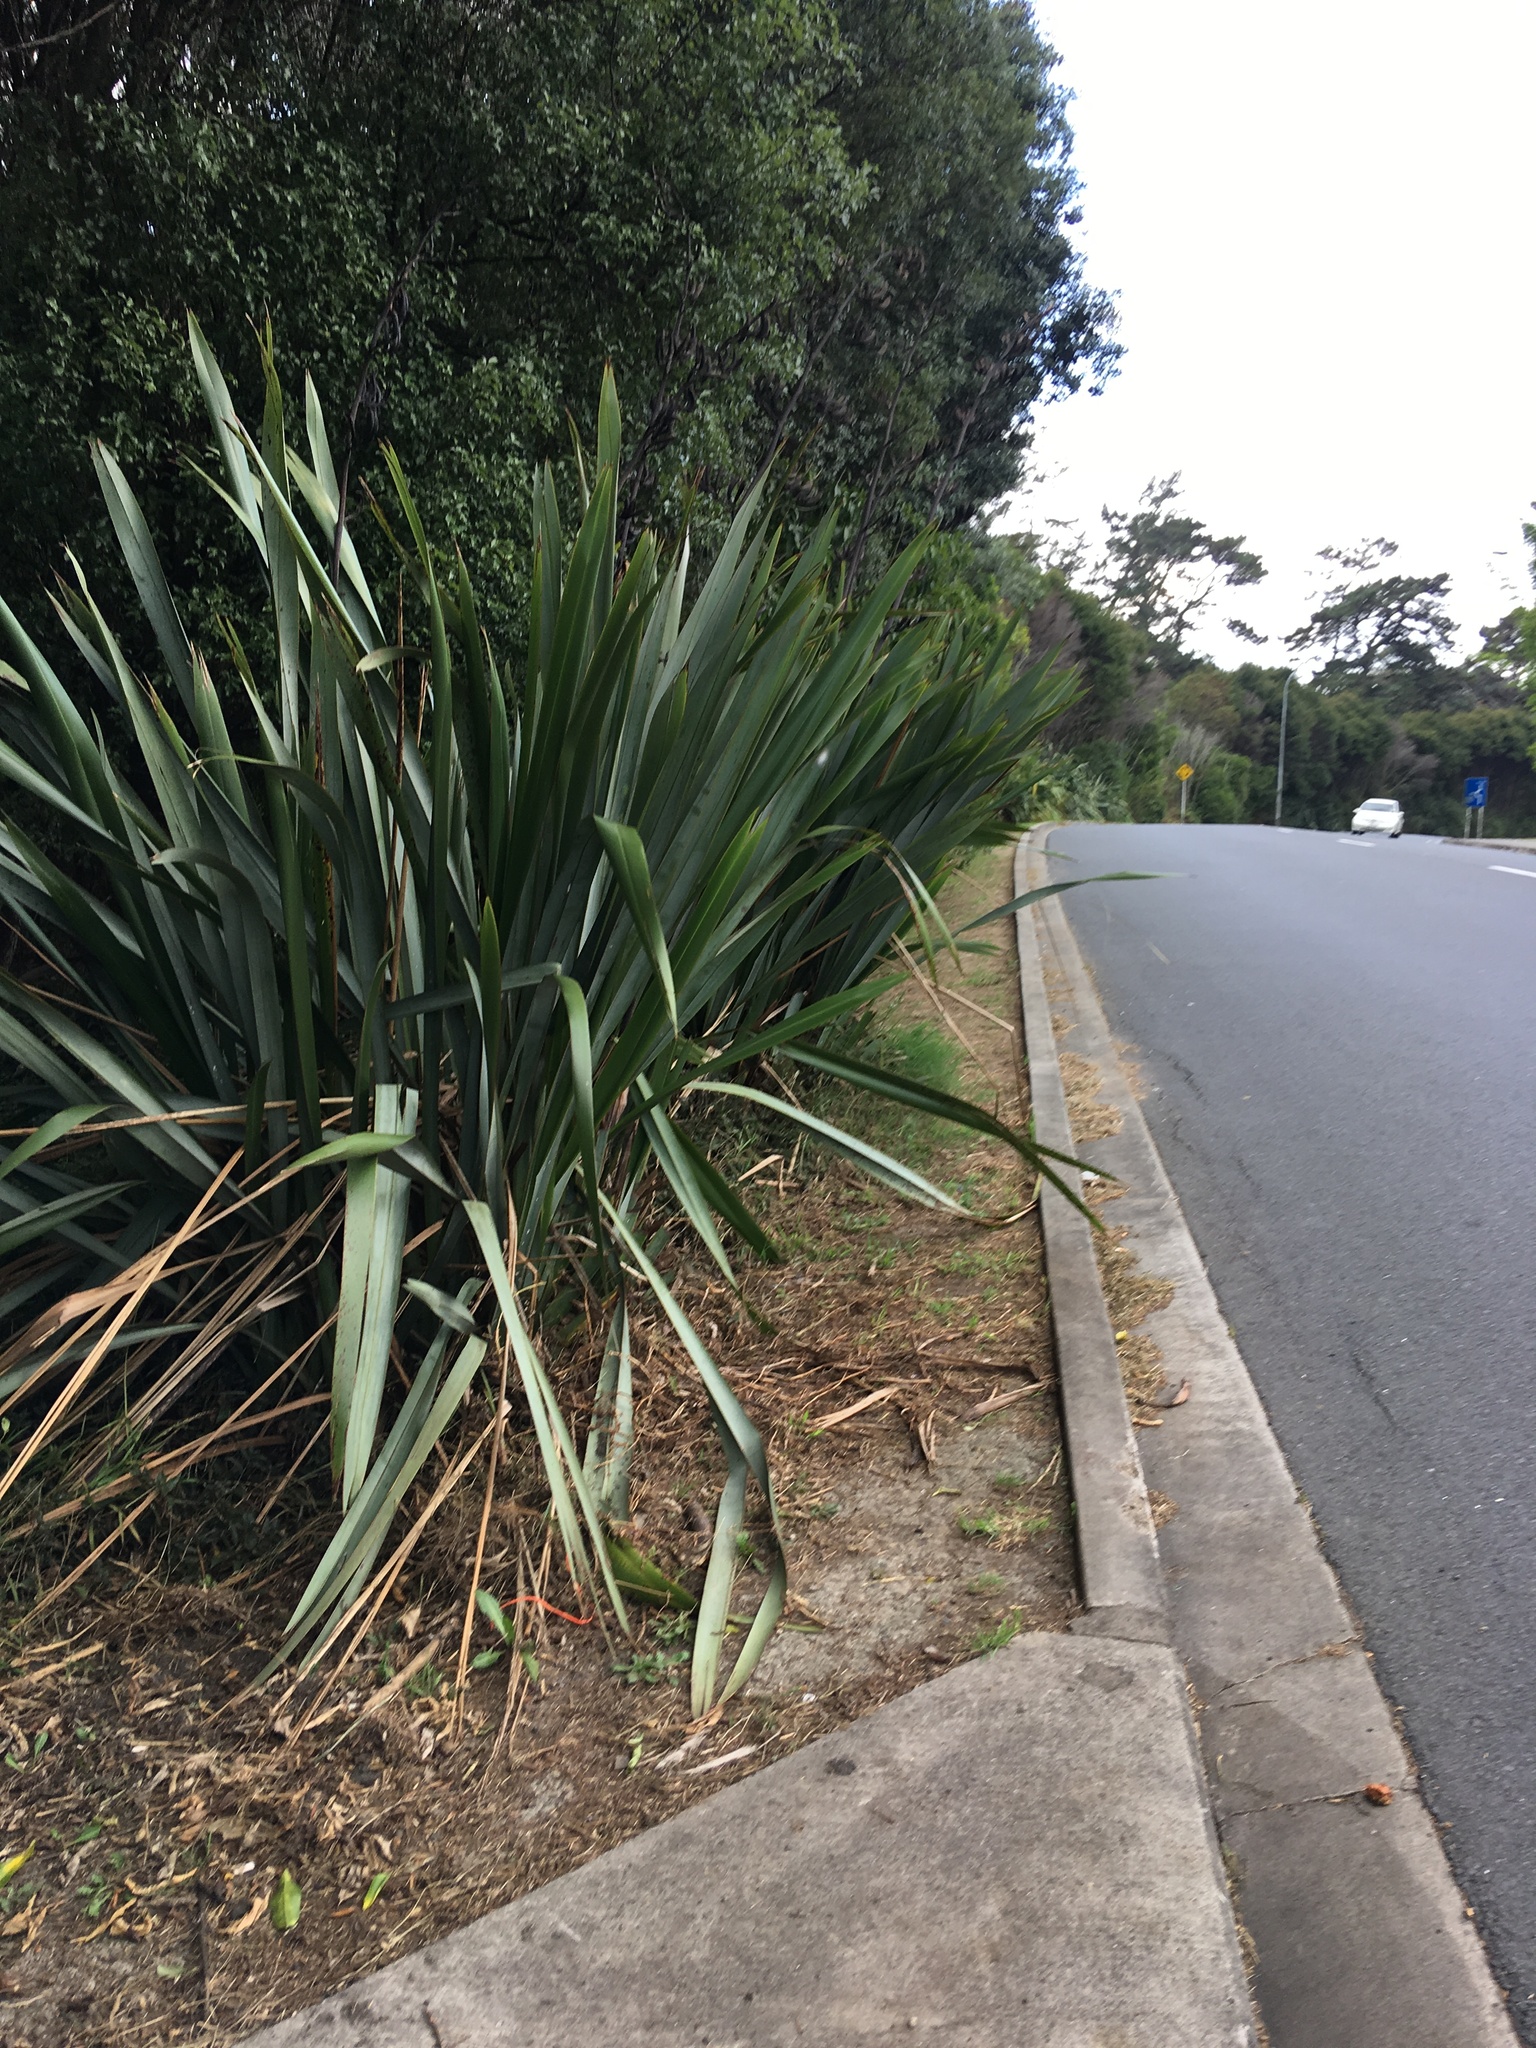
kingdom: Plantae
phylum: Tracheophyta
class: Liliopsida
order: Asparagales
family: Asphodelaceae
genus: Phormium
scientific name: Phormium tenax
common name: New zealand flax
